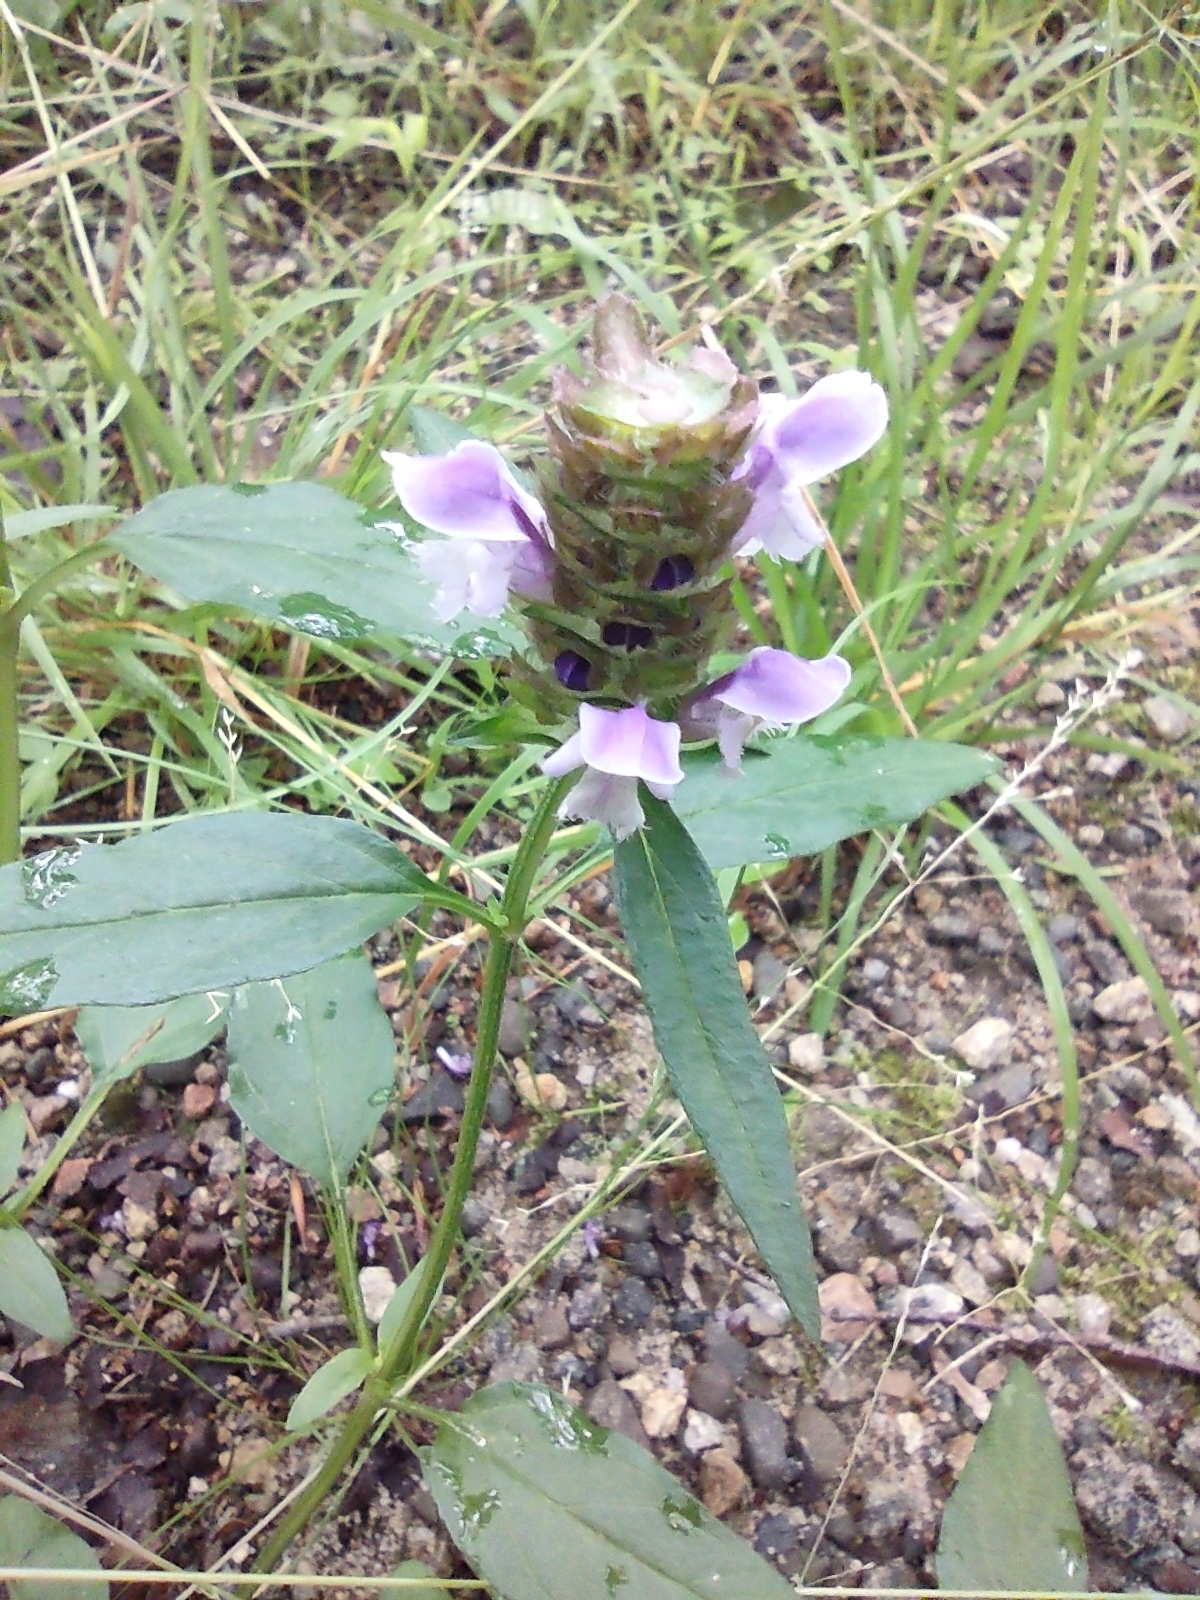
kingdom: Plantae
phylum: Tracheophyta
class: Magnoliopsida
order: Lamiales
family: Lamiaceae
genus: Prunella
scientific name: Prunella vulgaris
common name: Heal-all
